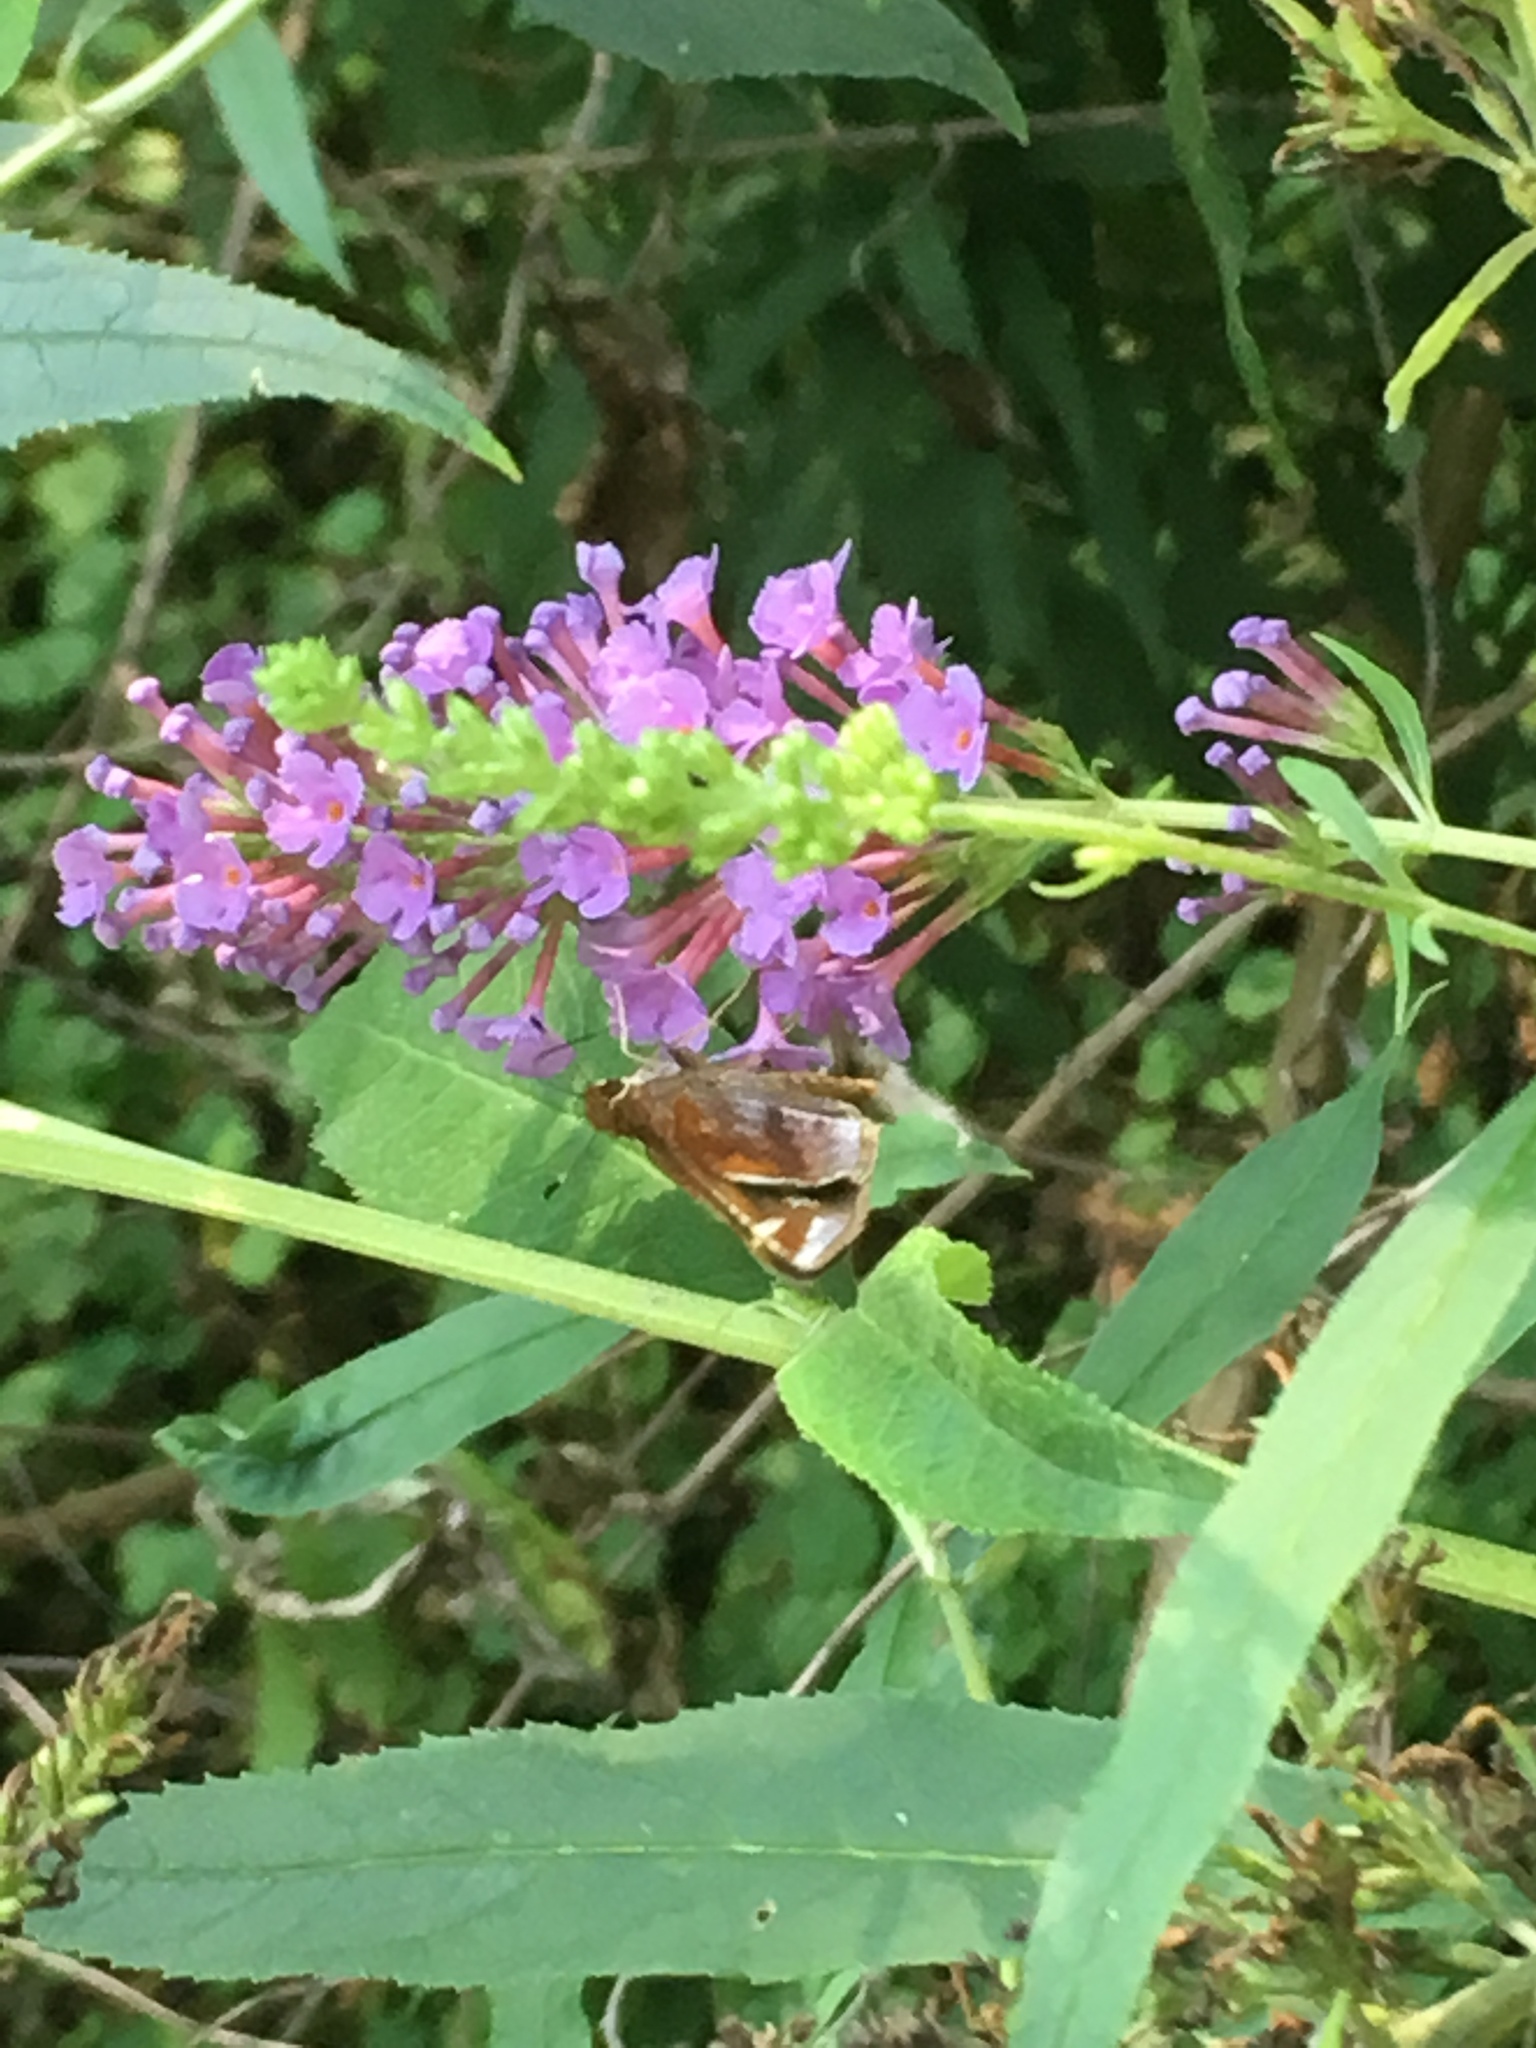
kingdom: Animalia
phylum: Arthropoda
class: Insecta
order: Lepidoptera
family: Hesperiidae
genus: Lon
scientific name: Lon zabulon
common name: Zabulon skipper
